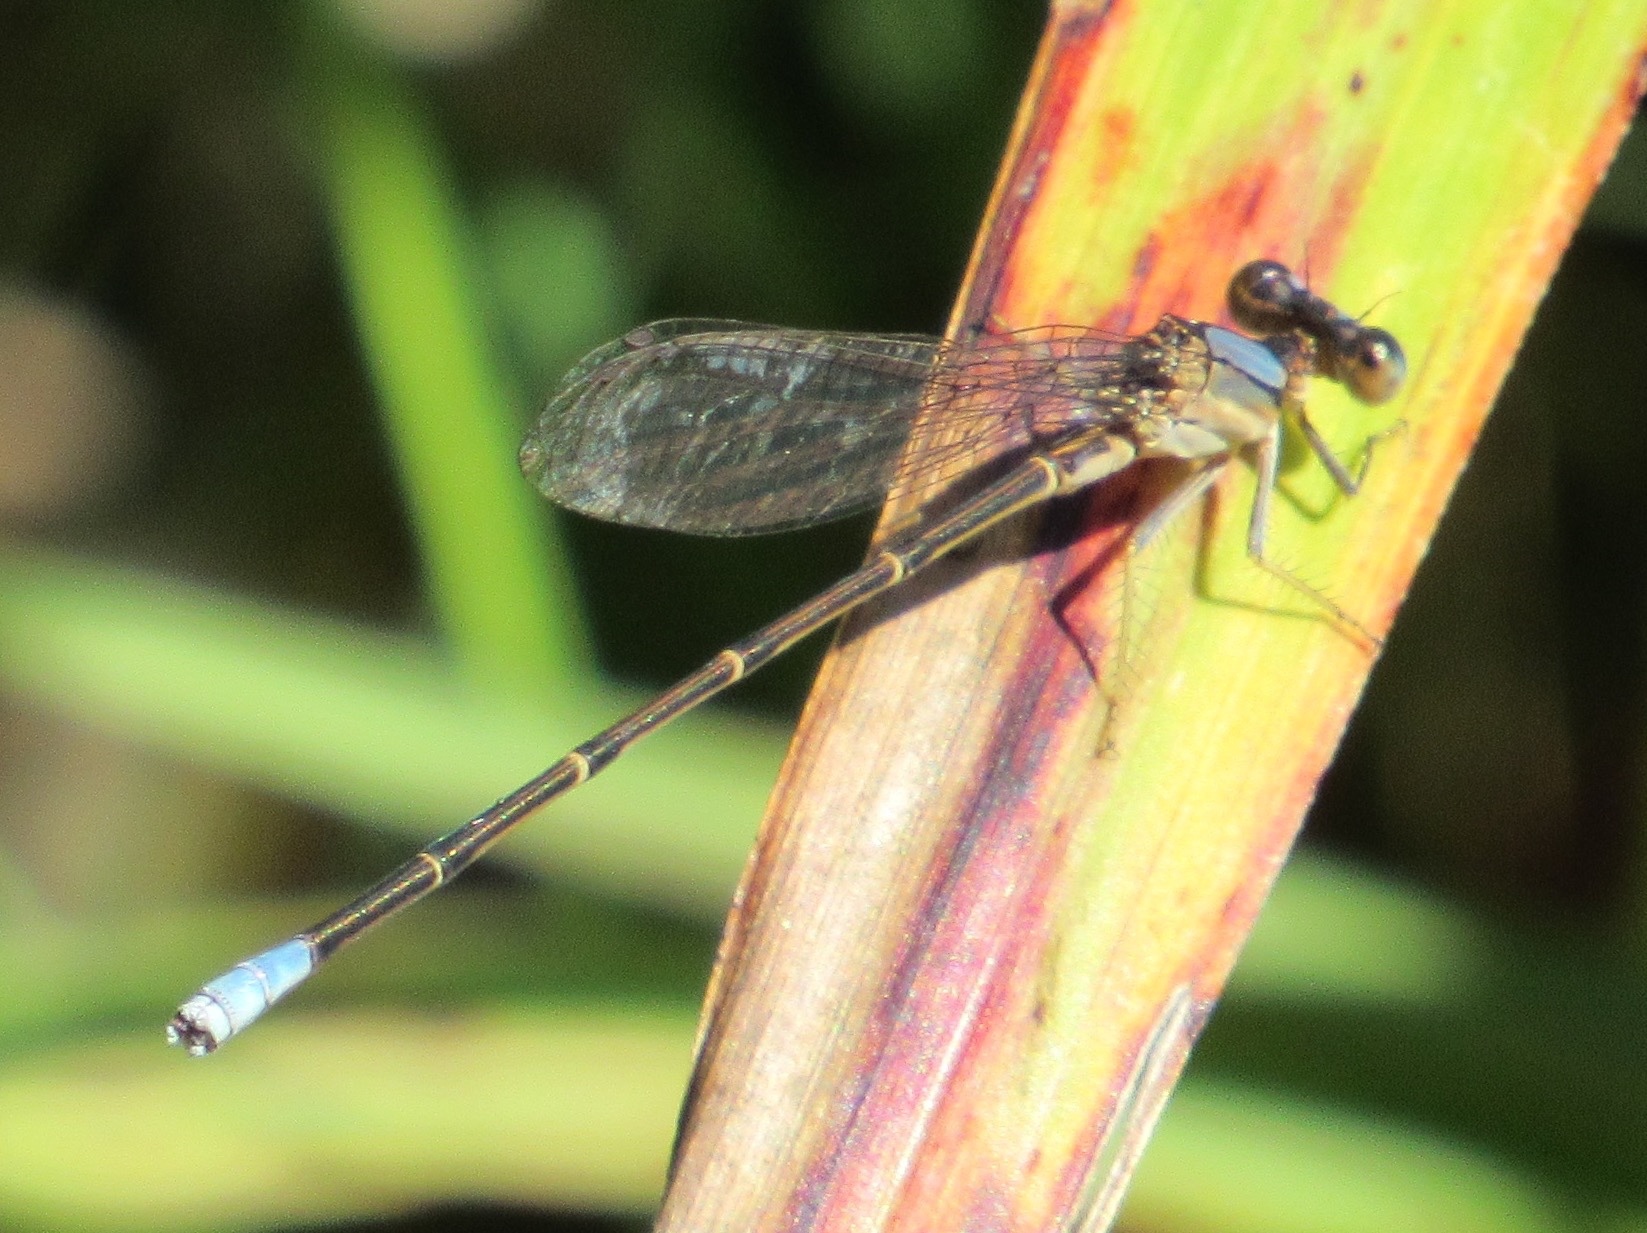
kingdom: Animalia
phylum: Arthropoda
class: Insecta
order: Odonata
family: Coenagrionidae
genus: Argia
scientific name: Argia apicalis
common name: Blue-fronted dancer
